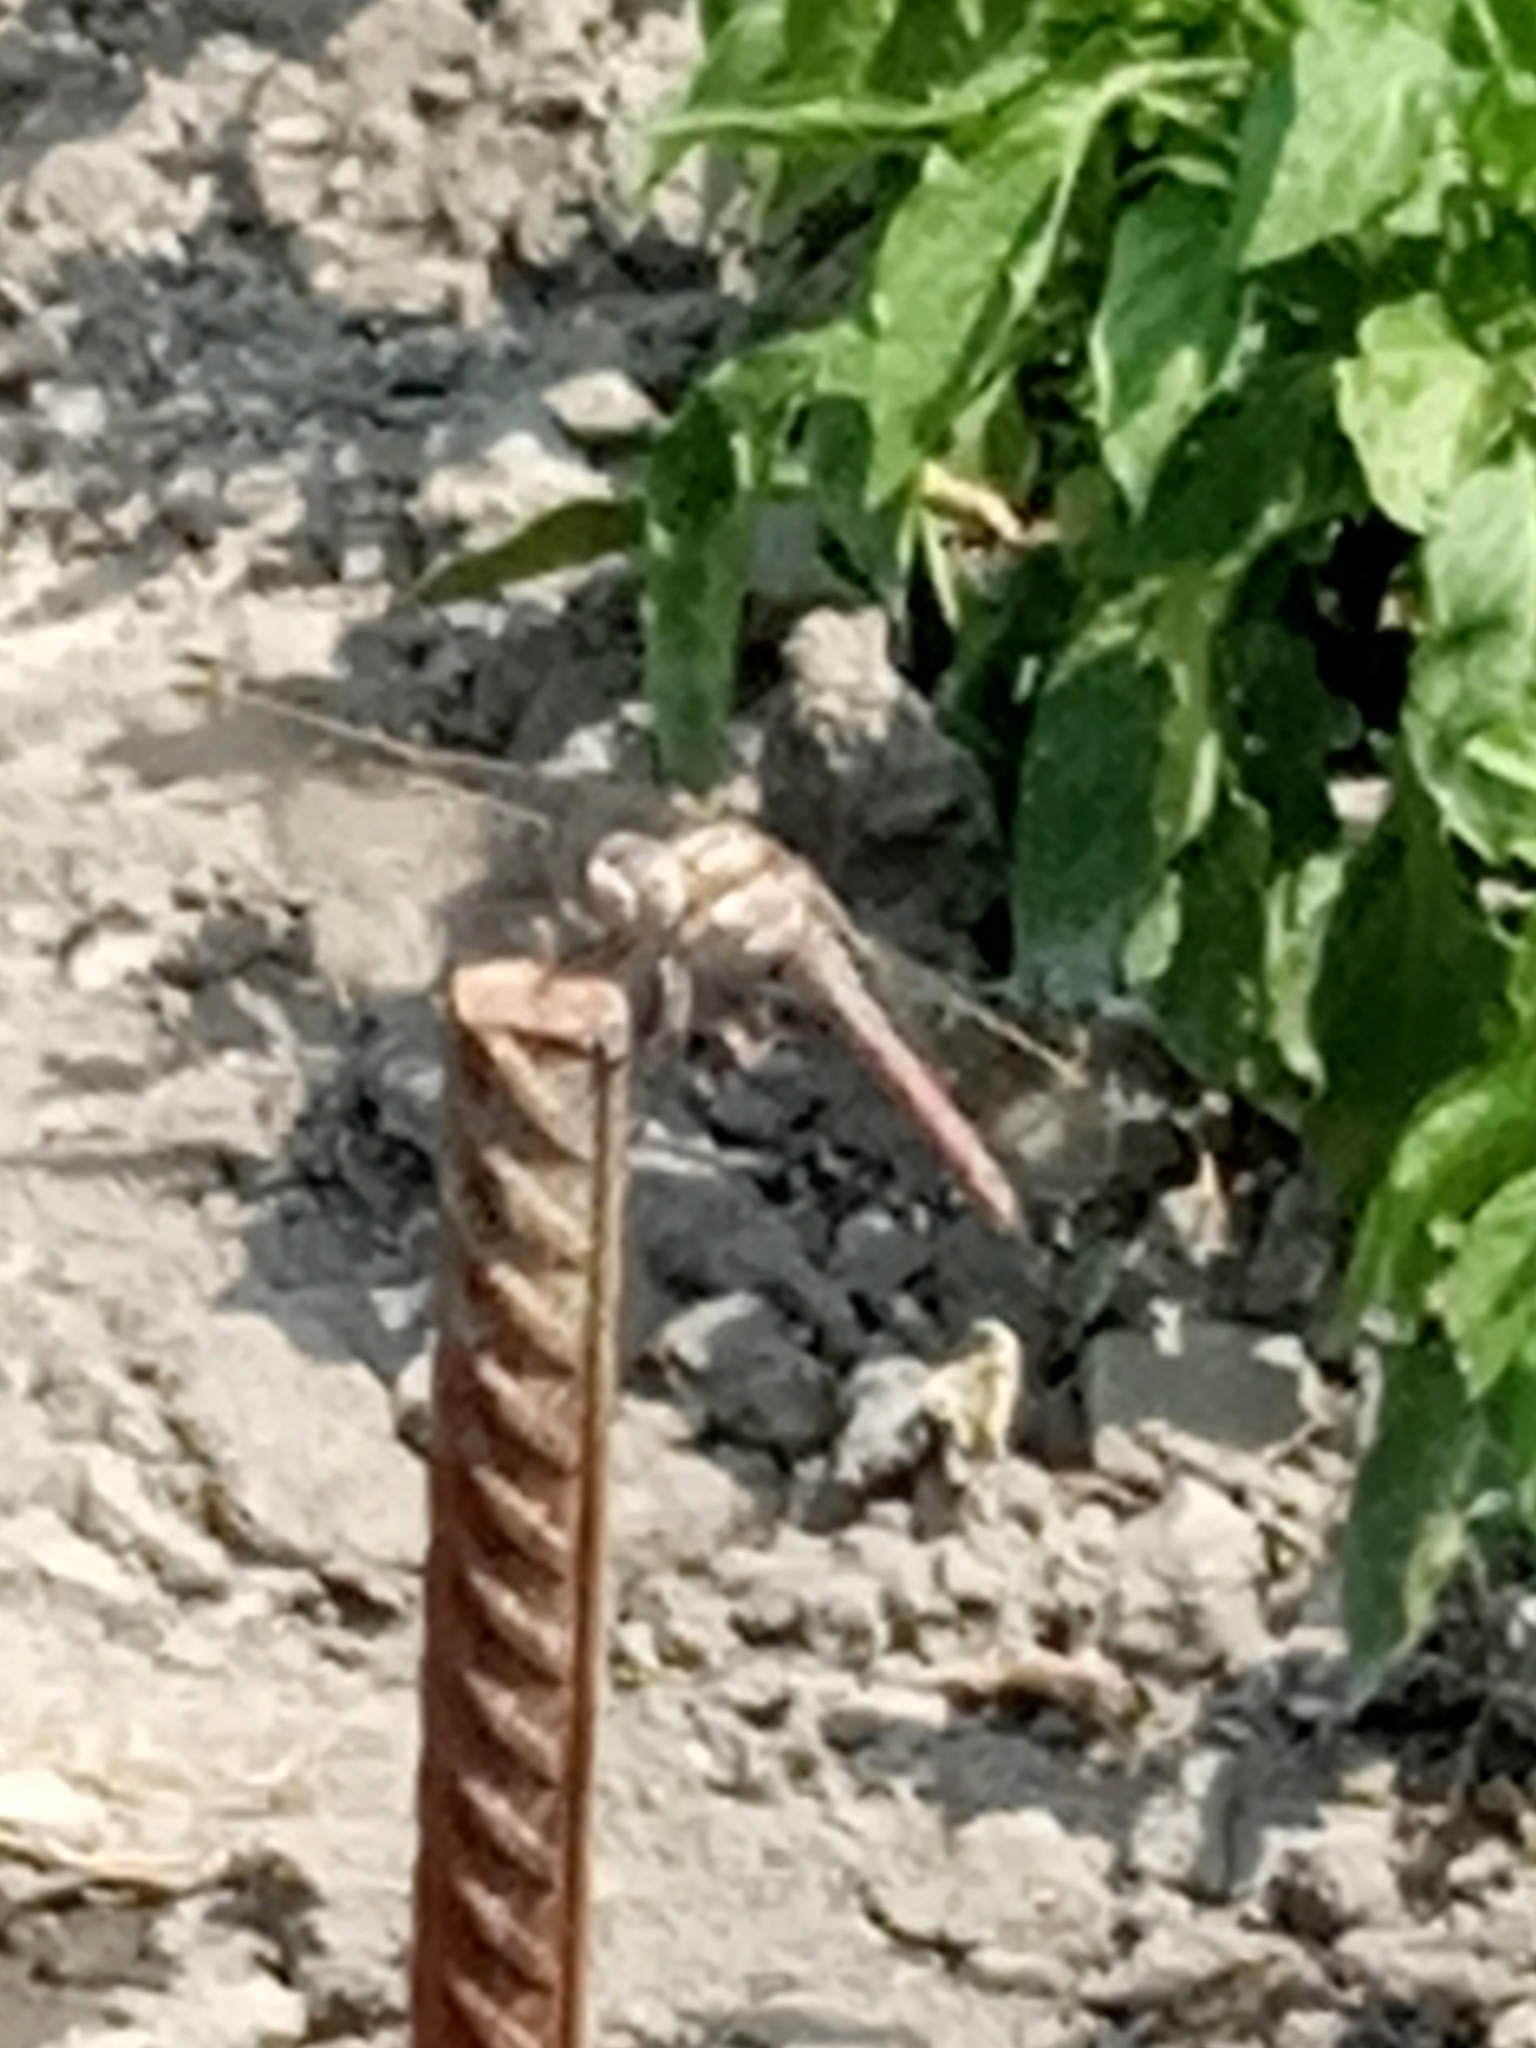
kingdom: Animalia
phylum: Arthropoda
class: Insecta
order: Odonata
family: Libellulidae
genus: Orthetrum
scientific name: Orthetrum
